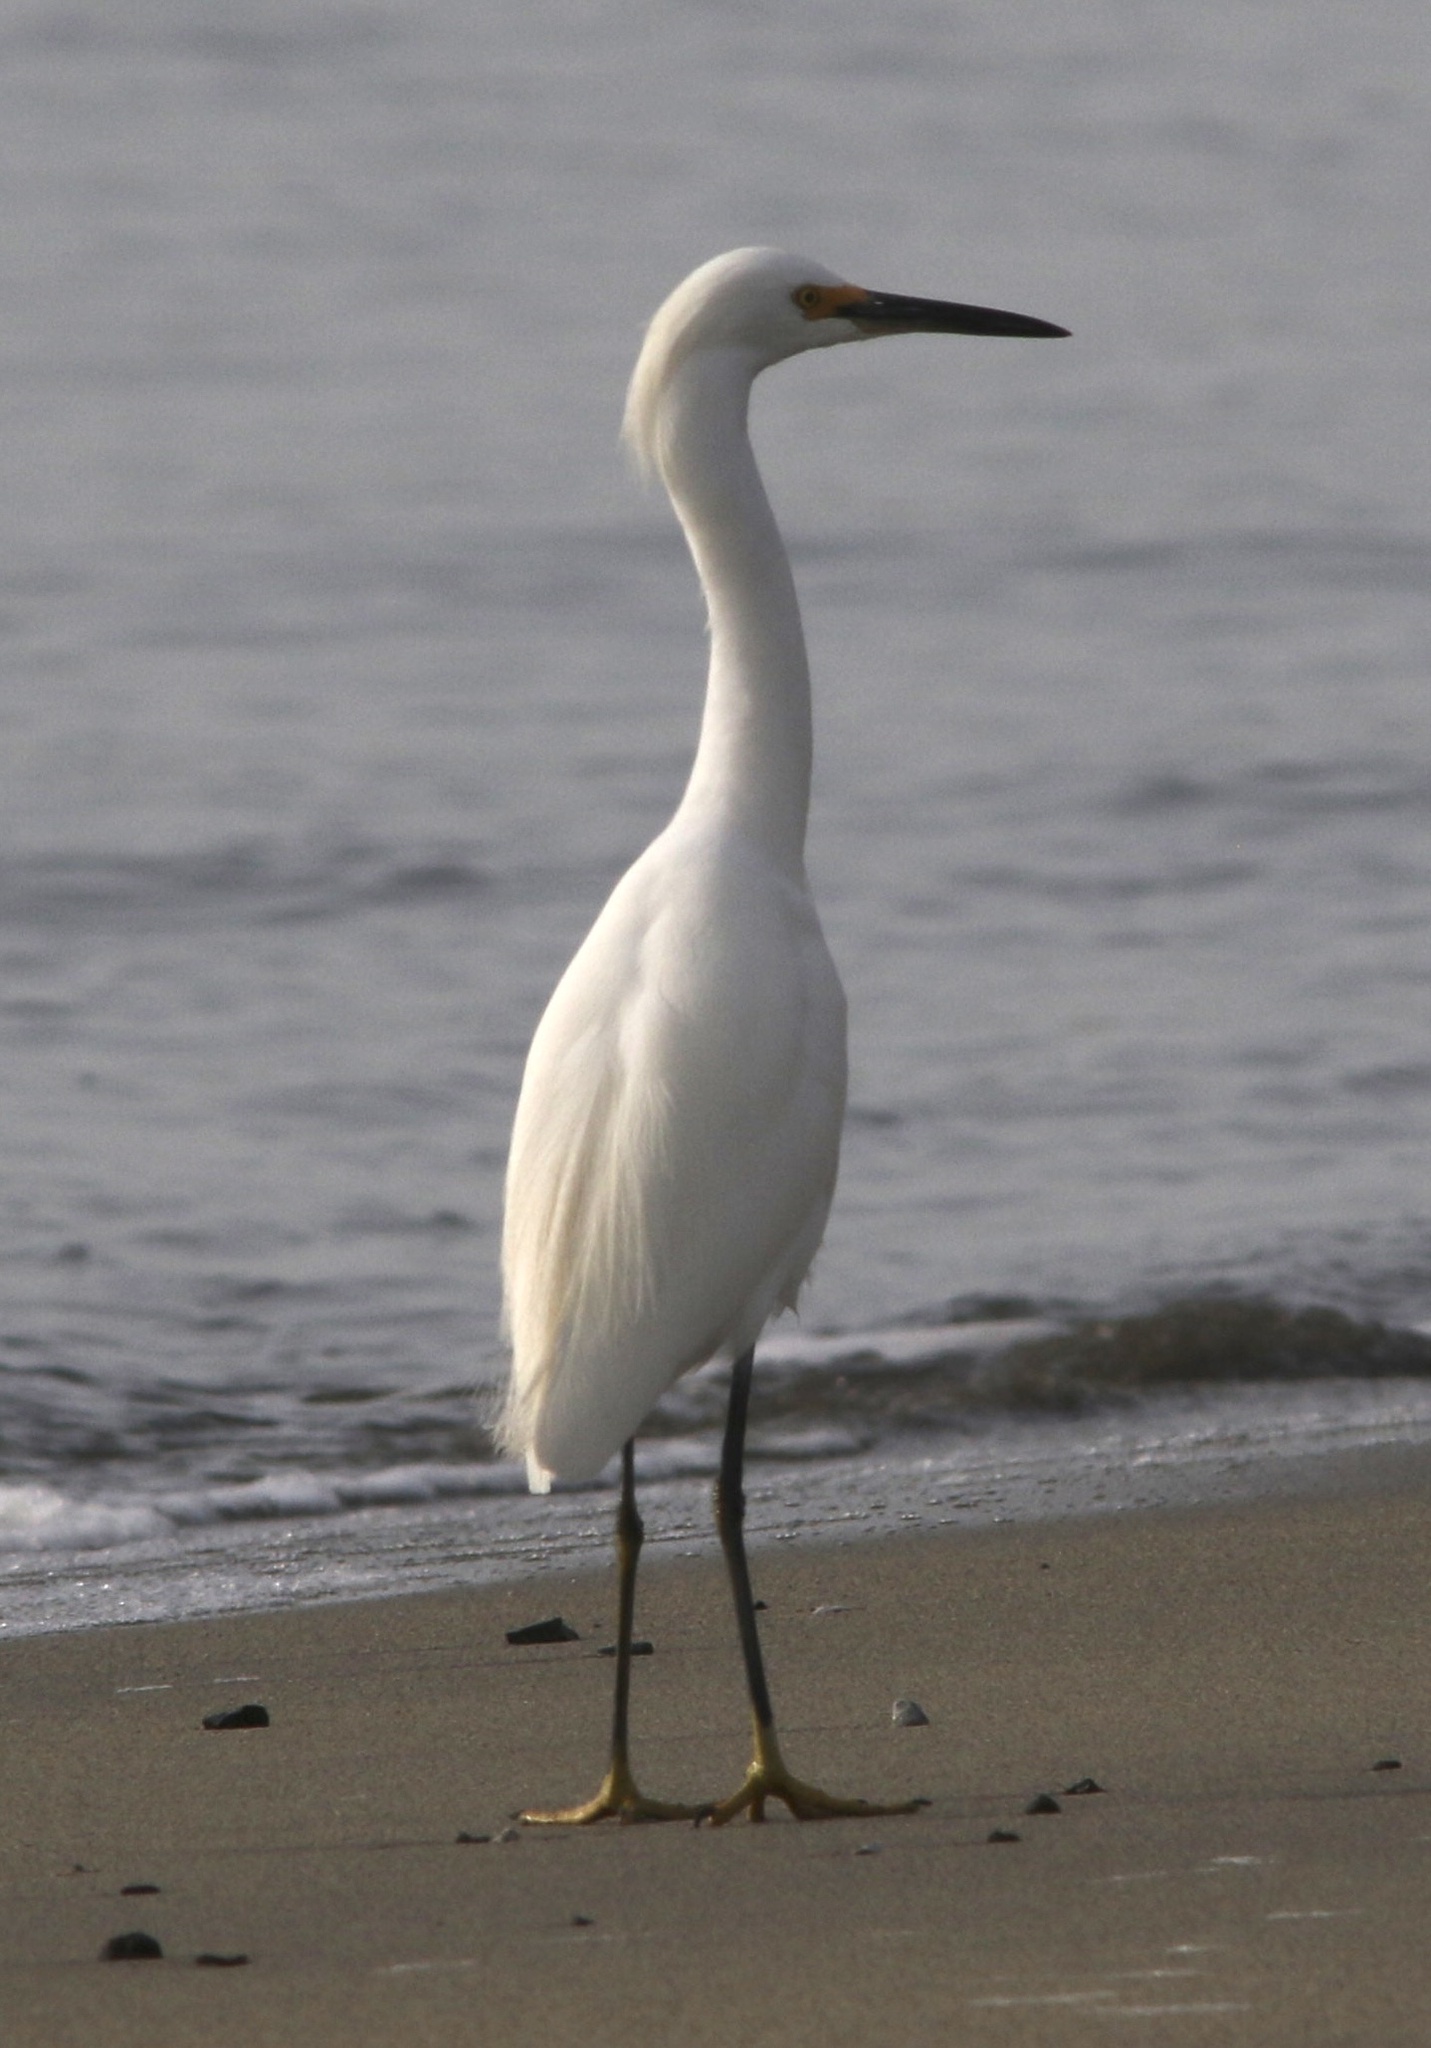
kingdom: Animalia
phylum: Chordata
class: Aves
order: Pelecaniformes
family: Ardeidae
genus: Egretta
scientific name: Egretta thula
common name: Snowy egret
